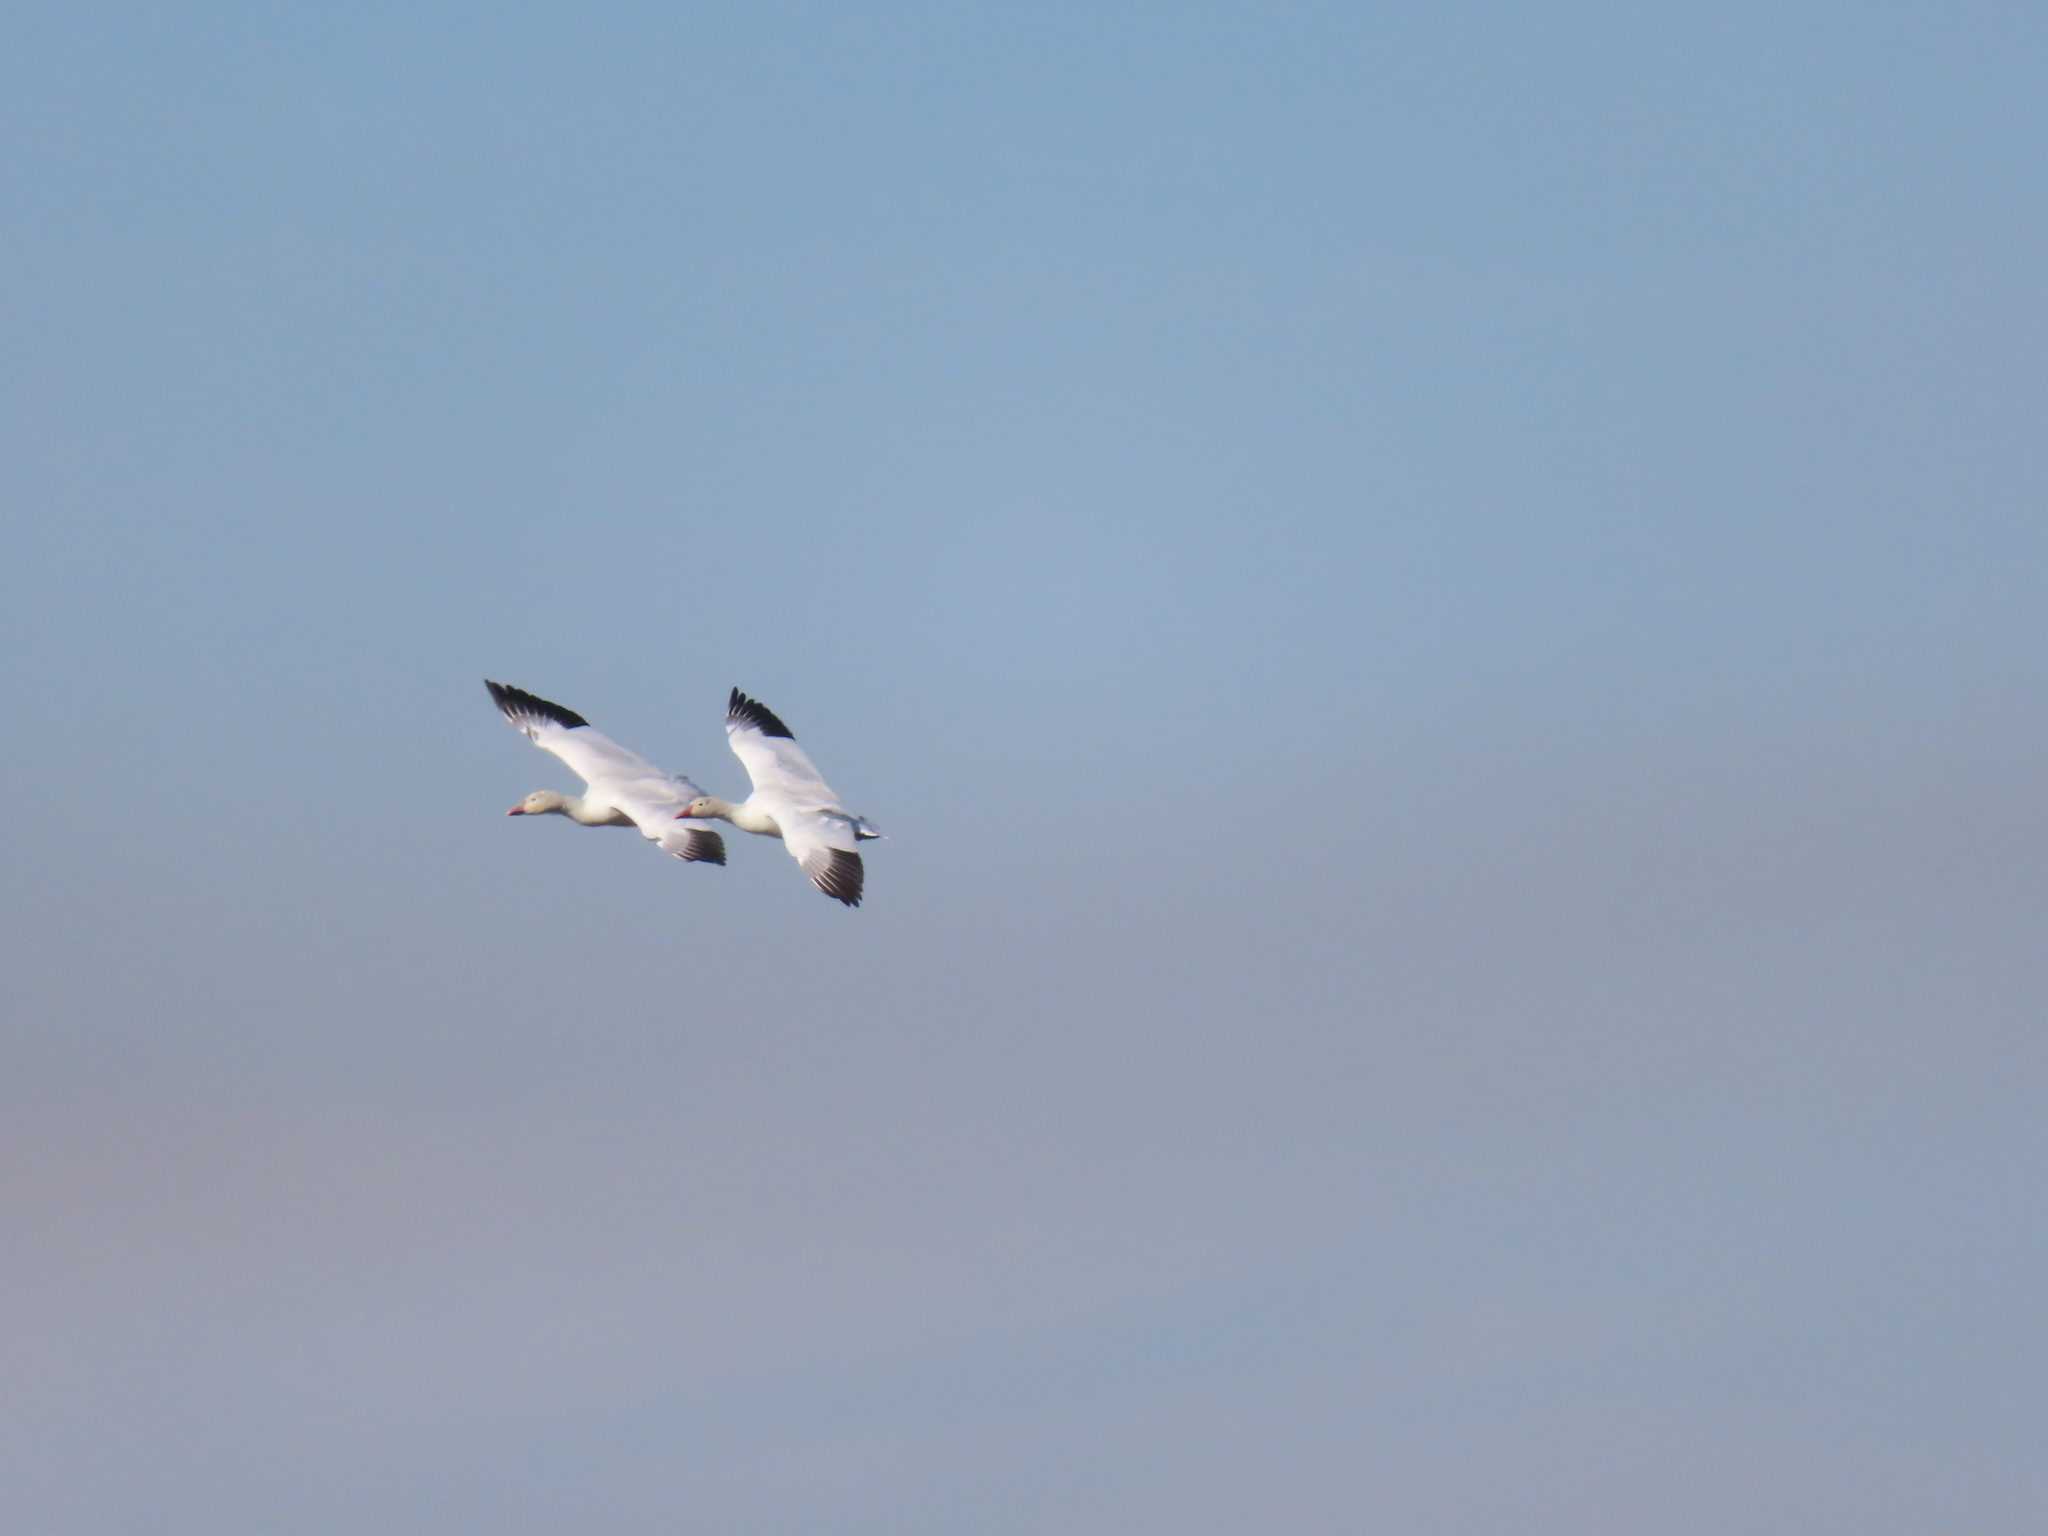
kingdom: Animalia
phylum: Chordata
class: Aves
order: Anseriformes
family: Anatidae
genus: Anser
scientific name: Anser caerulescens
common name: Snow goose
